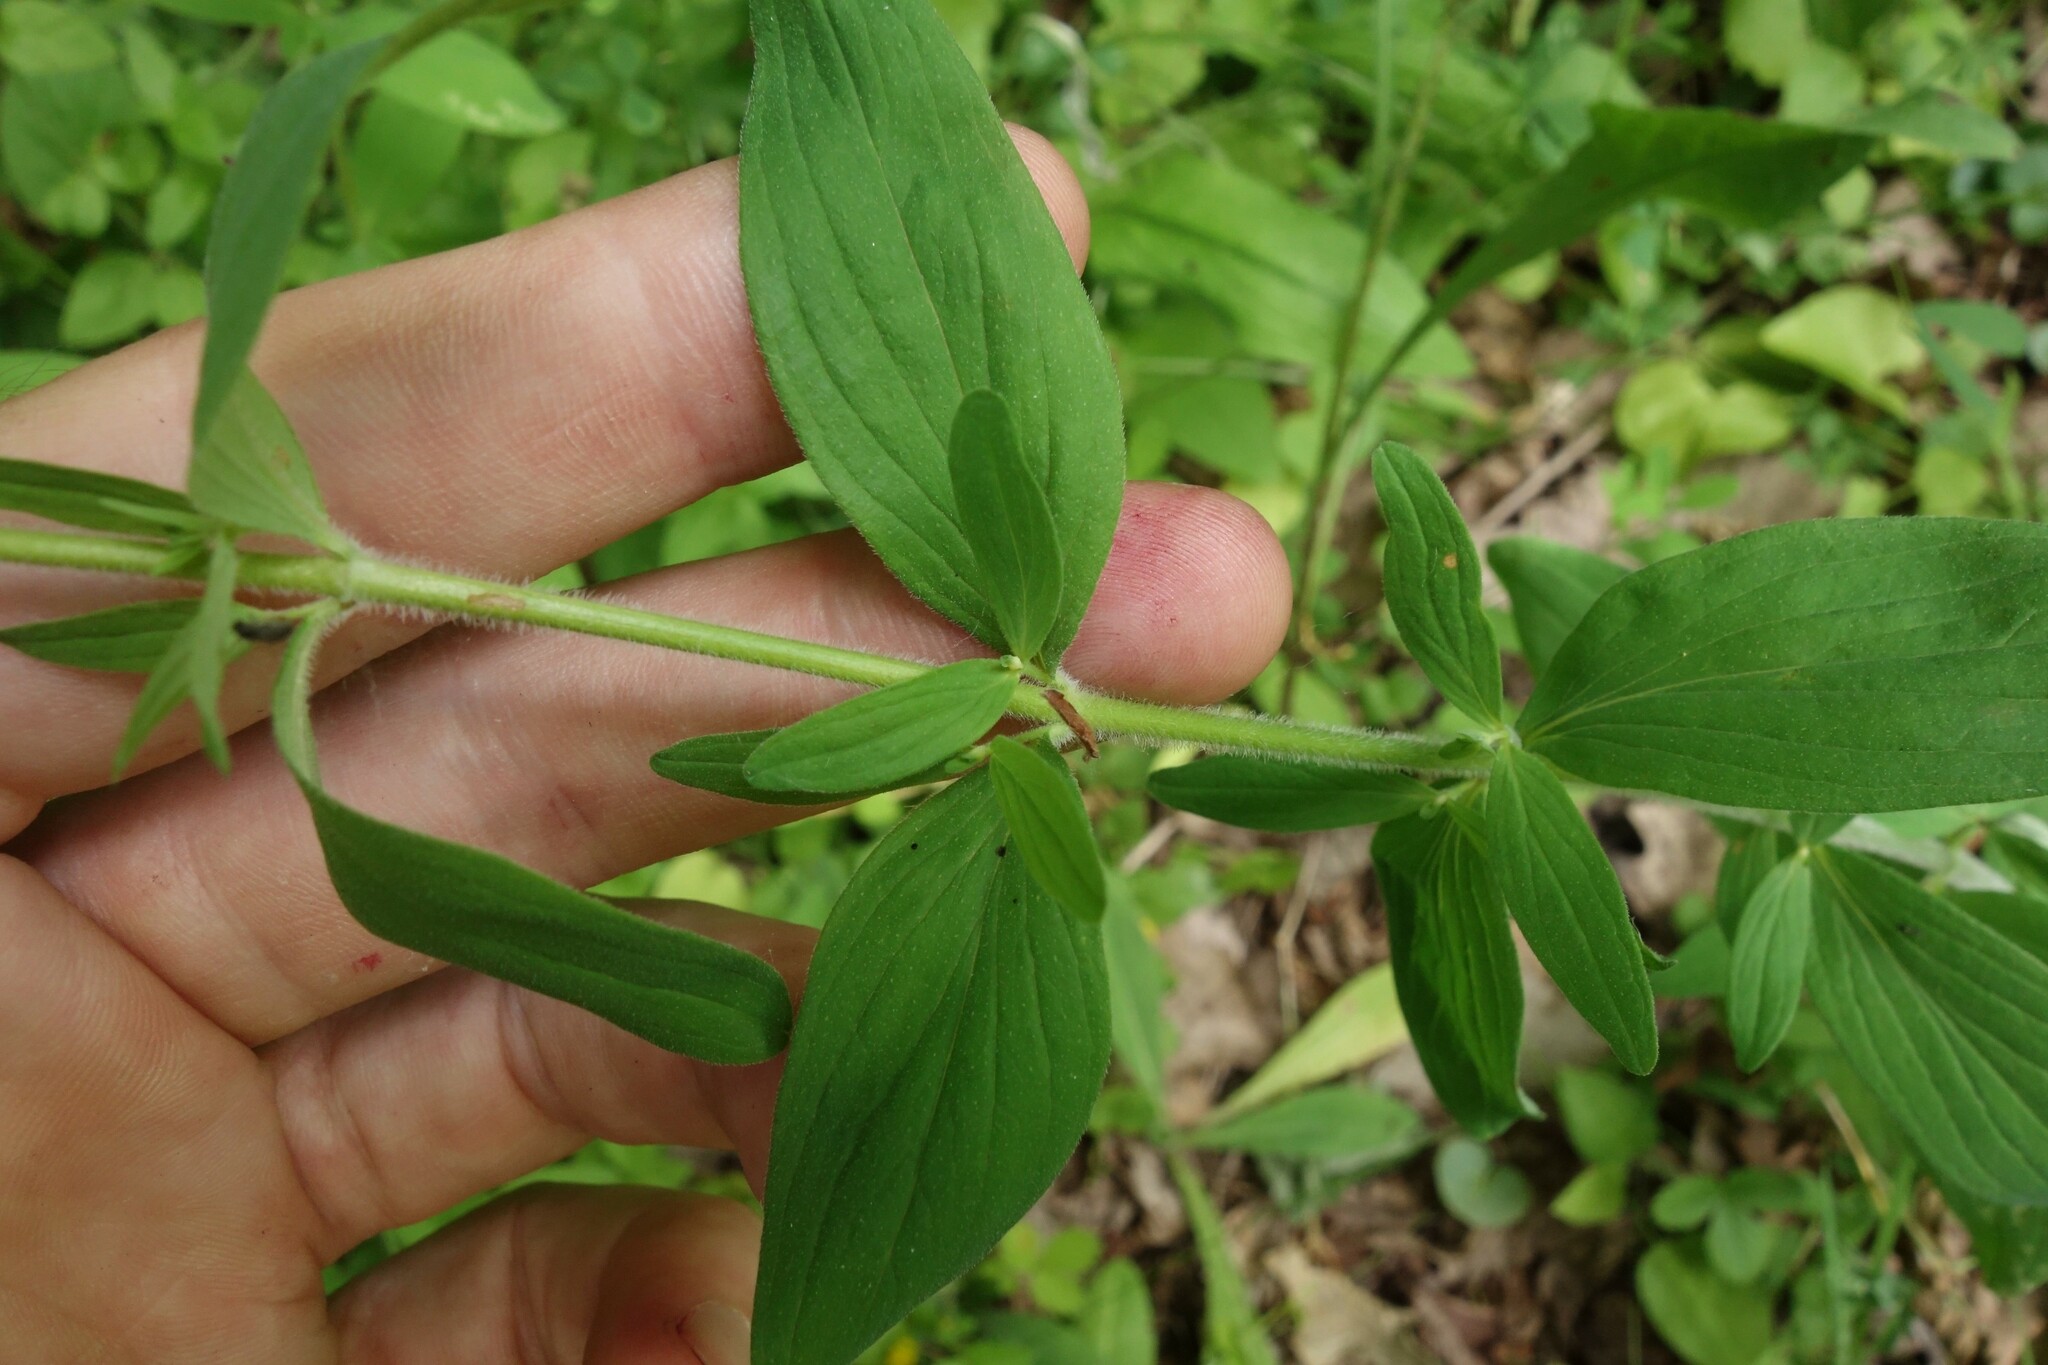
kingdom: Plantae
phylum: Tracheophyta
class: Magnoliopsida
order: Malpighiales
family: Hypericaceae
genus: Hypericum
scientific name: Hypericum hirsutum
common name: Hairy st. john's-wort
